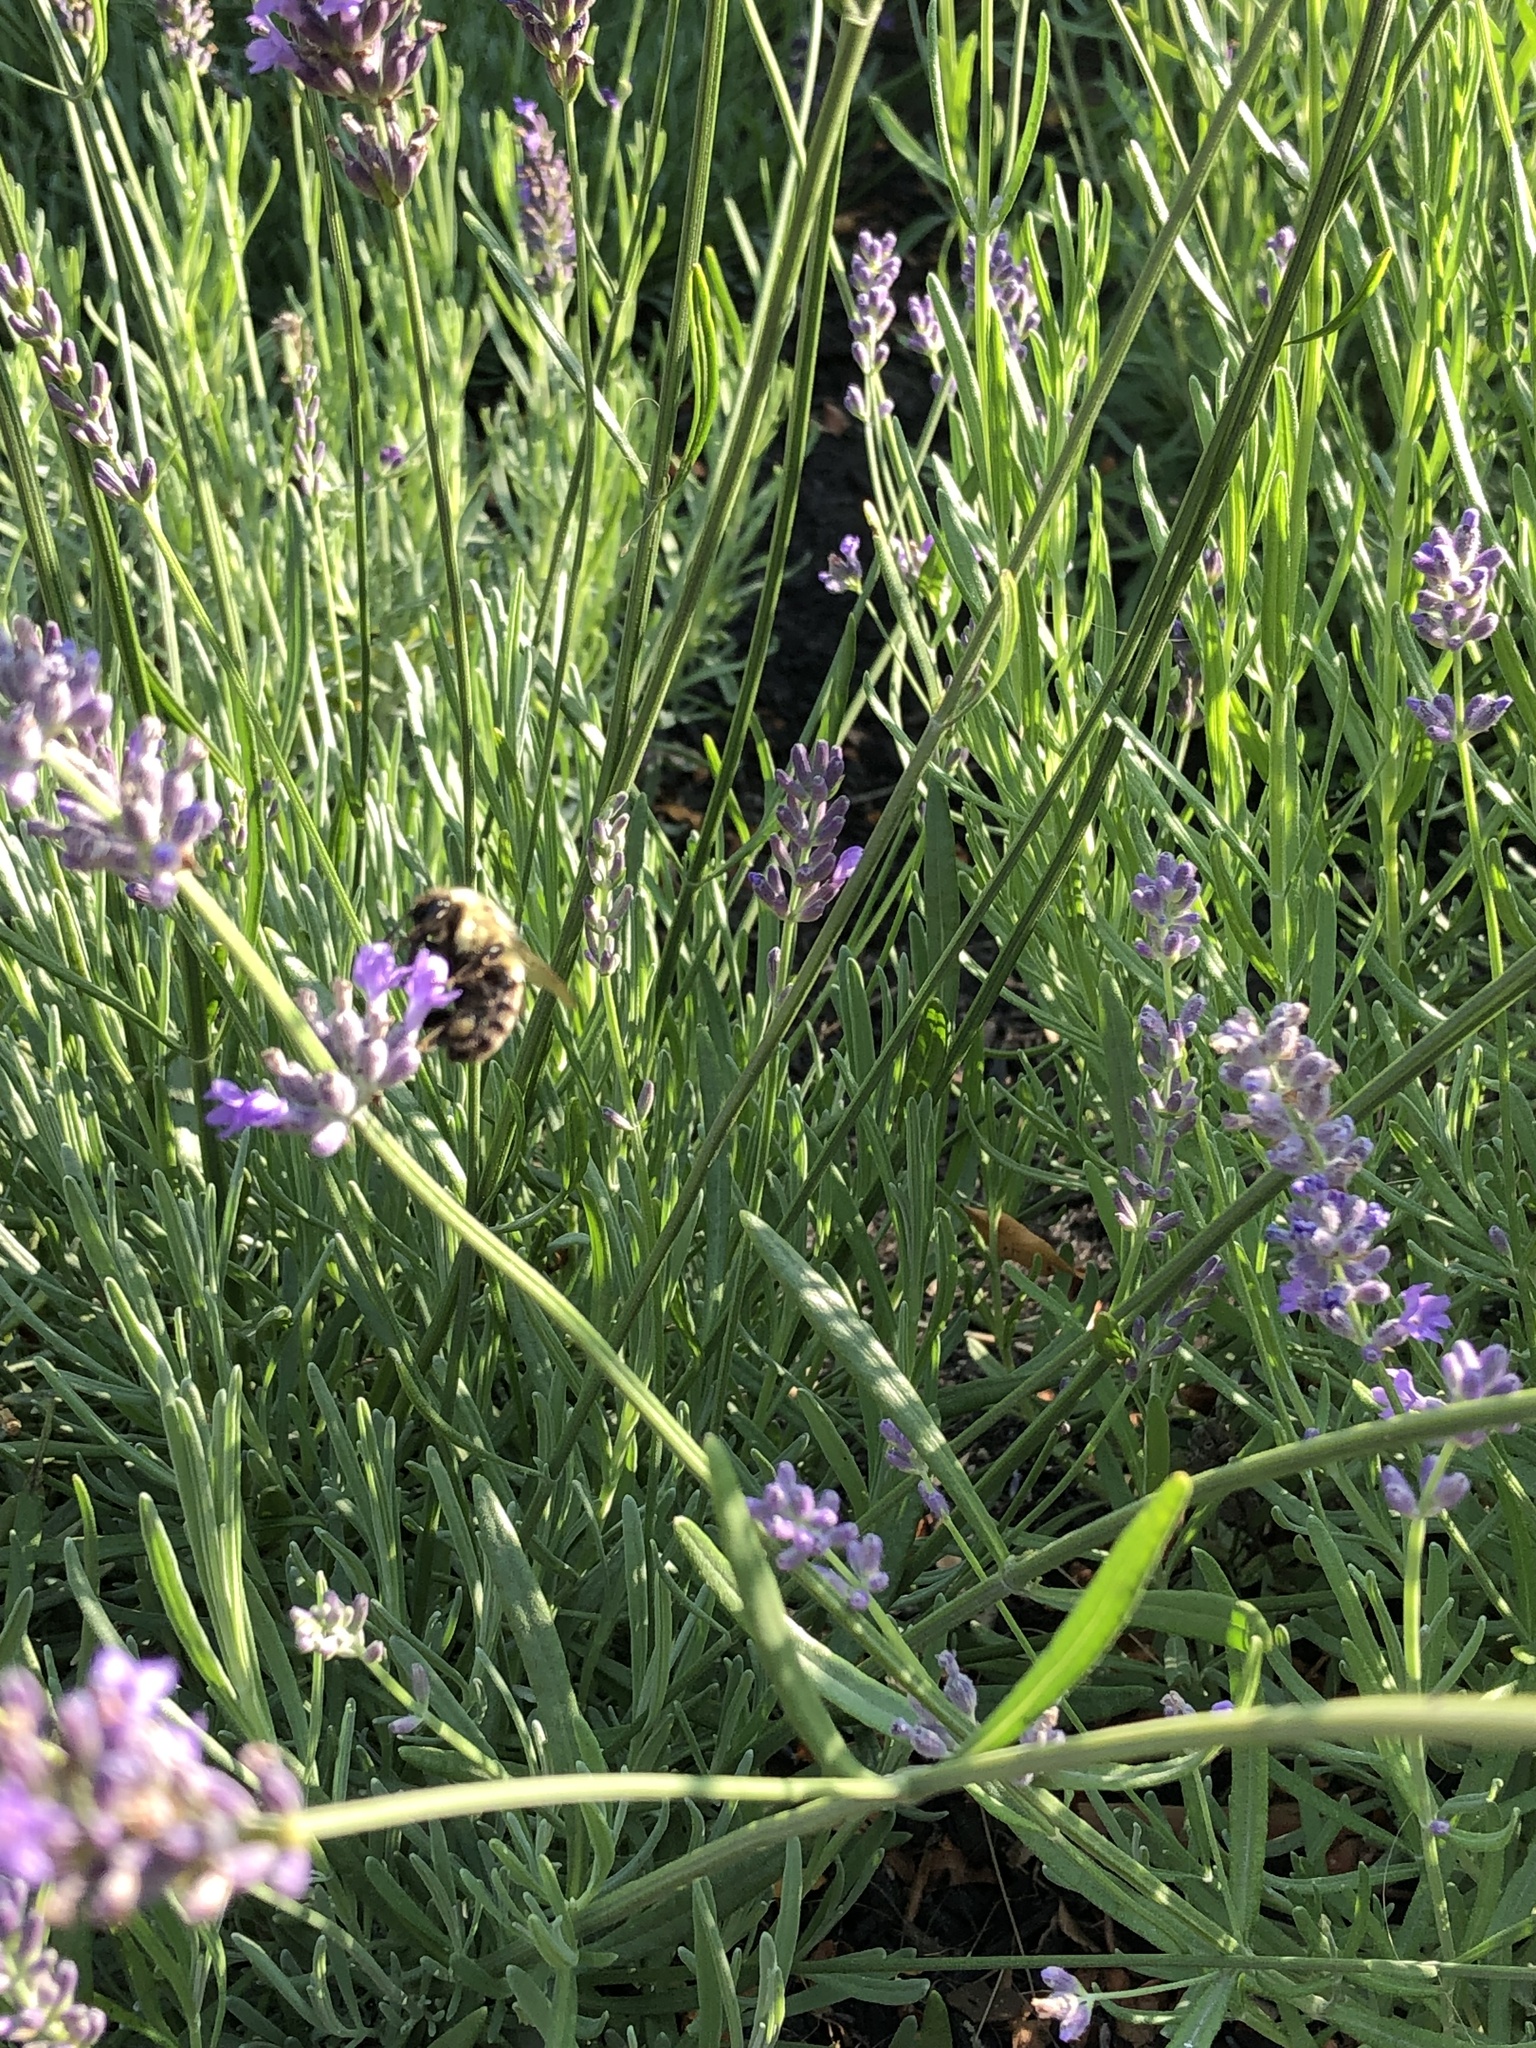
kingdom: Animalia
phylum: Arthropoda
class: Insecta
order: Hymenoptera
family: Apidae
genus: Bombus
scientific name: Bombus impatiens
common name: Common eastern bumble bee
